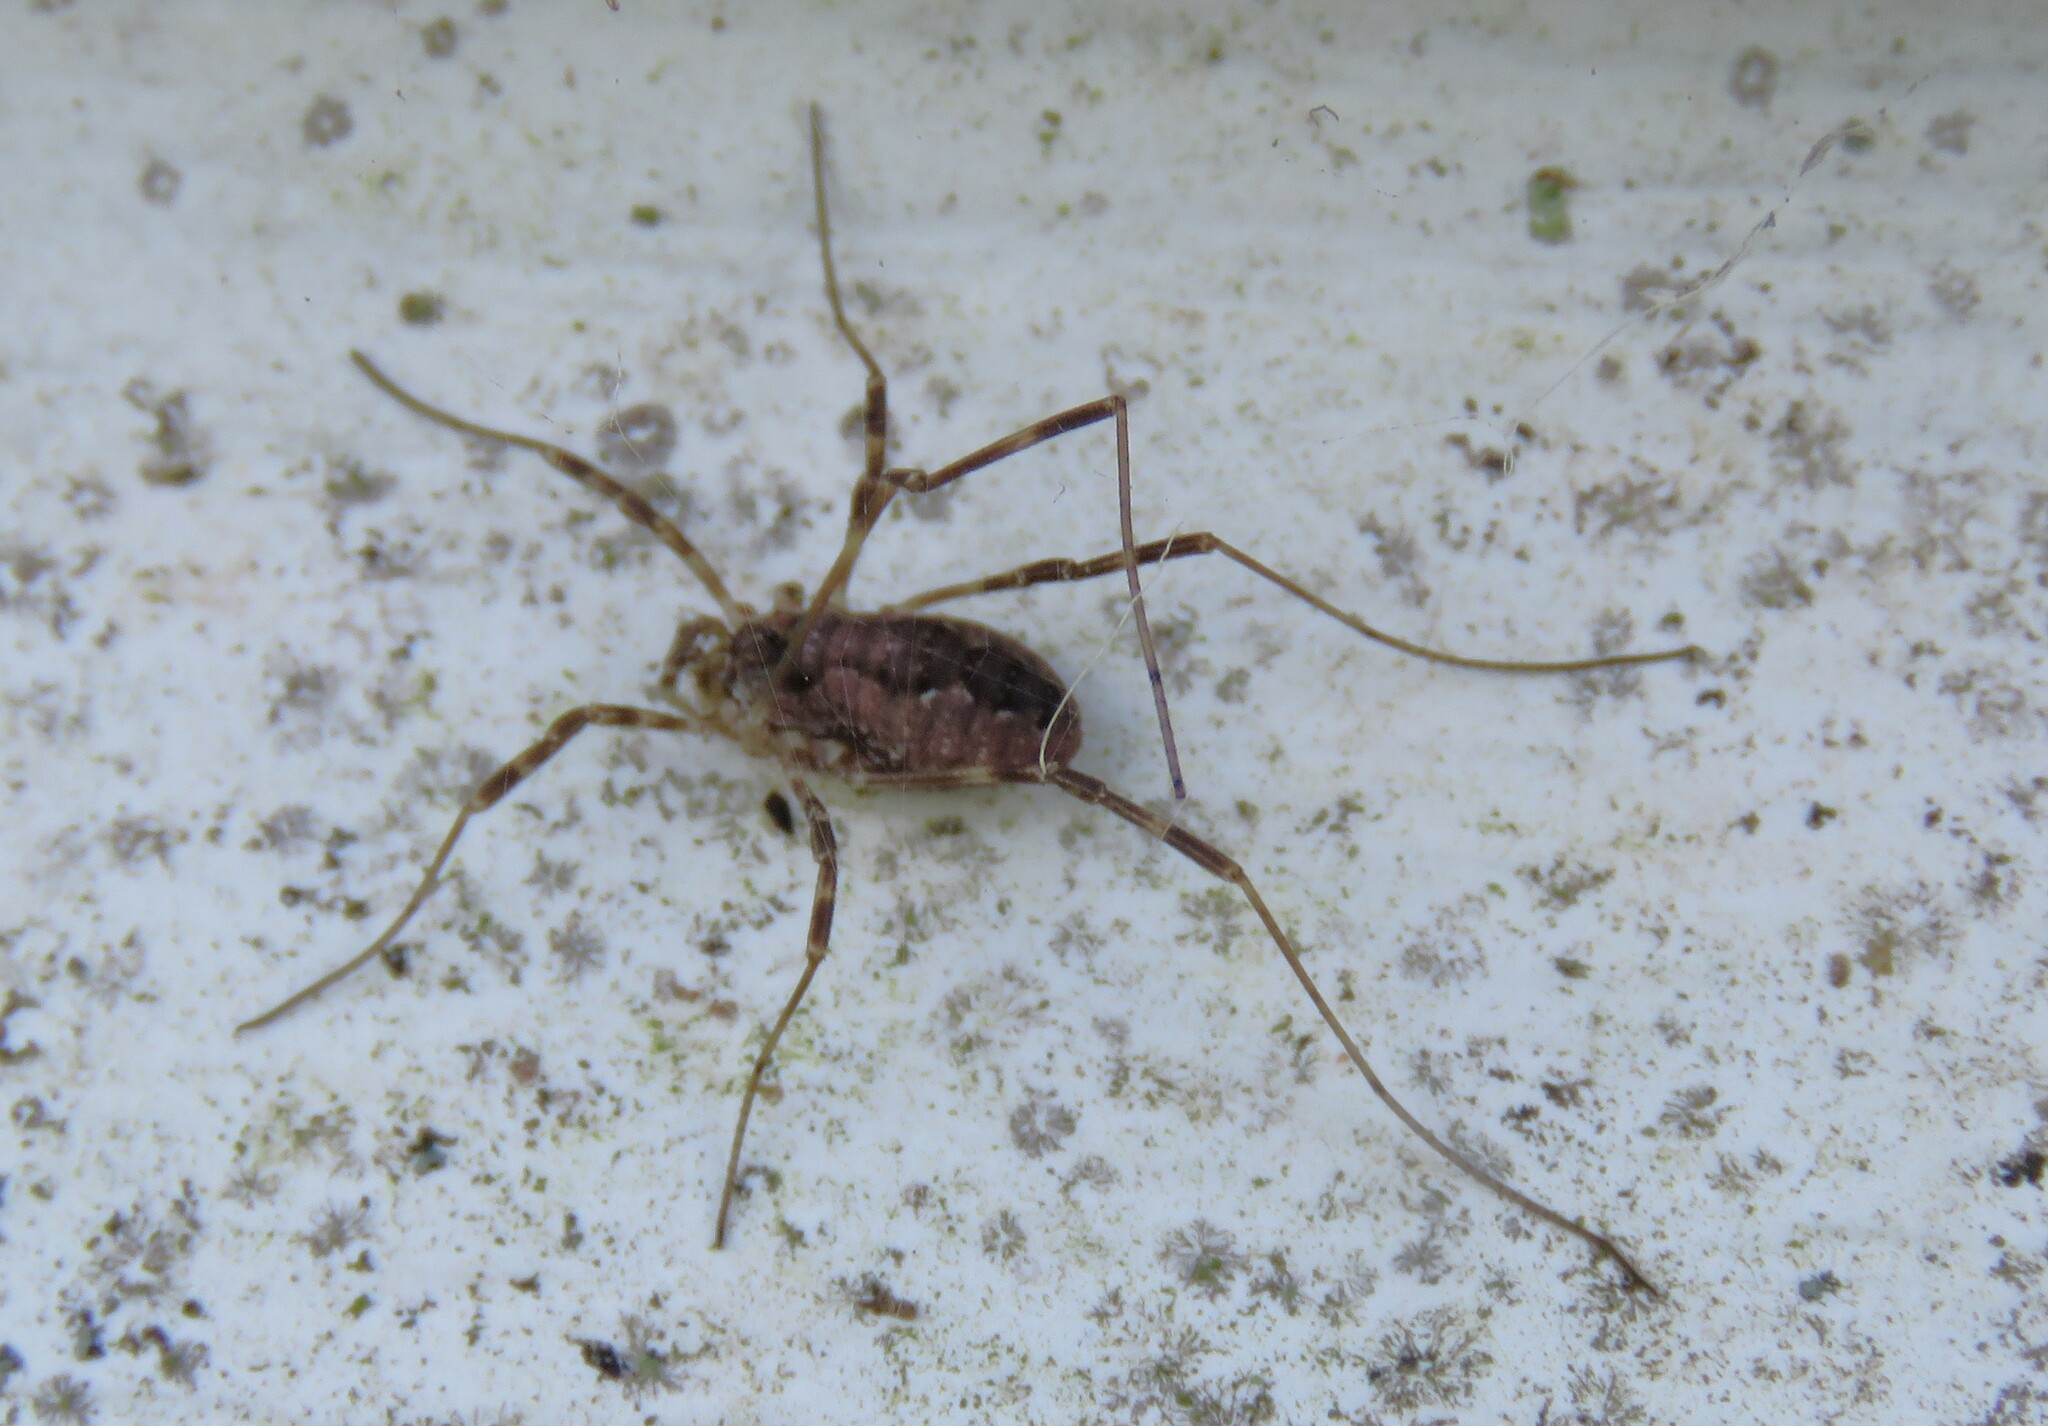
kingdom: Animalia
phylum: Arthropoda
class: Arachnida
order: Opiliones
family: Phalangiidae
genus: Odiellus
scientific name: Odiellus pictus
